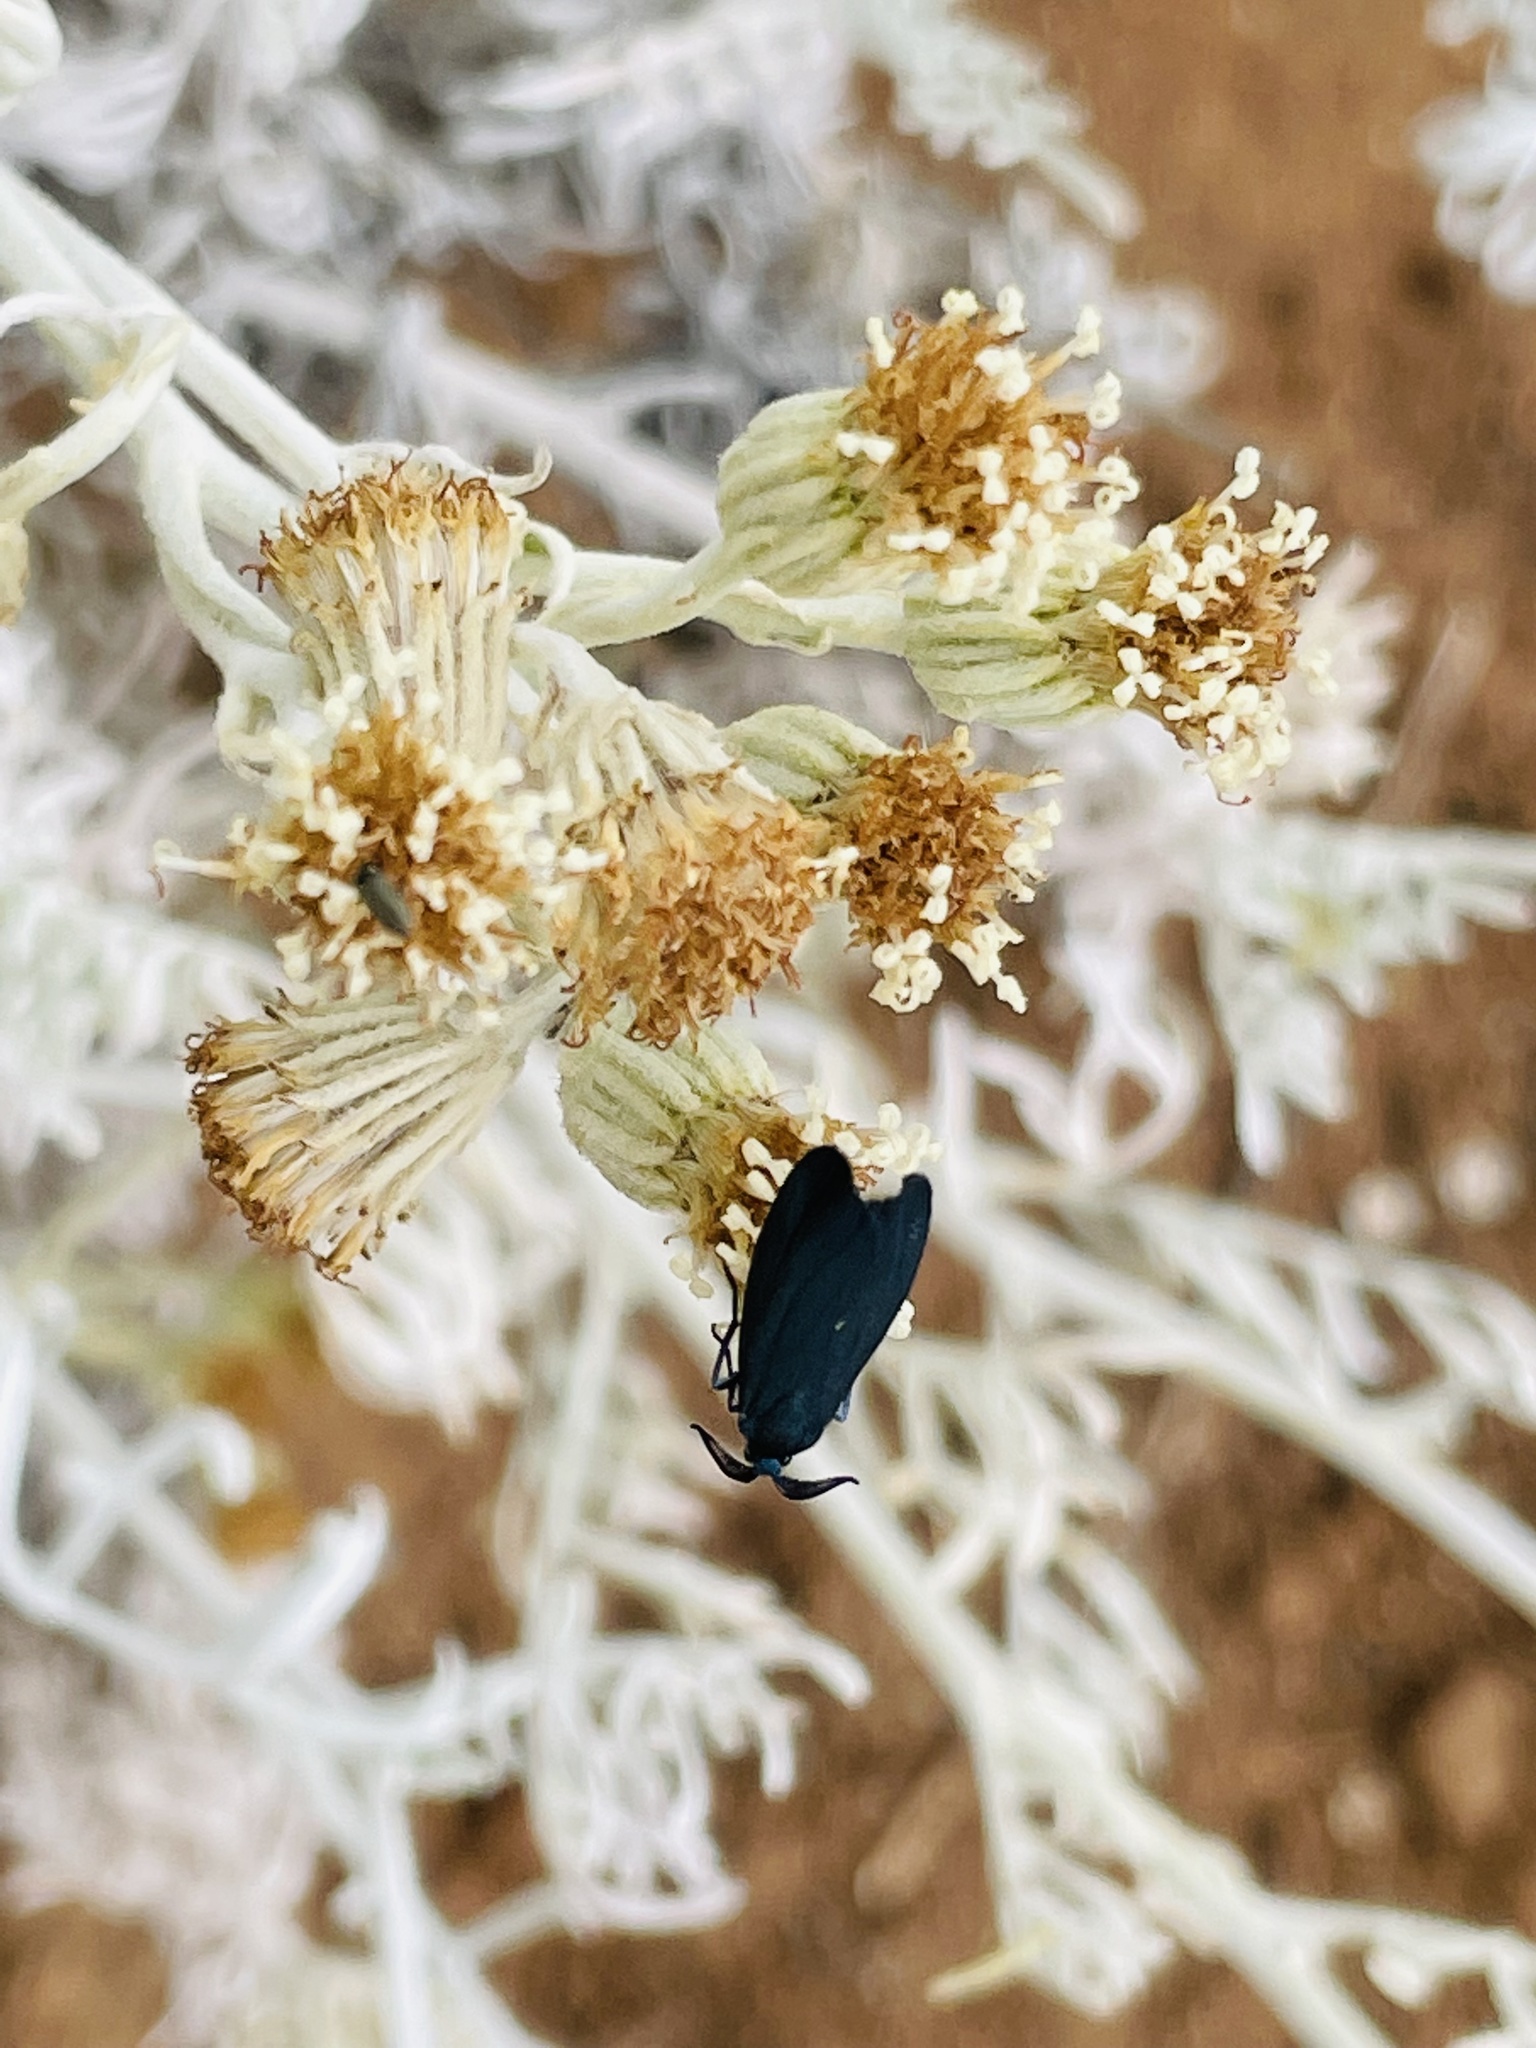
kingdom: Animalia
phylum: Arthropoda
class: Insecta
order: Lepidoptera
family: Zygaenidae
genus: Malamblia
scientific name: Malamblia
